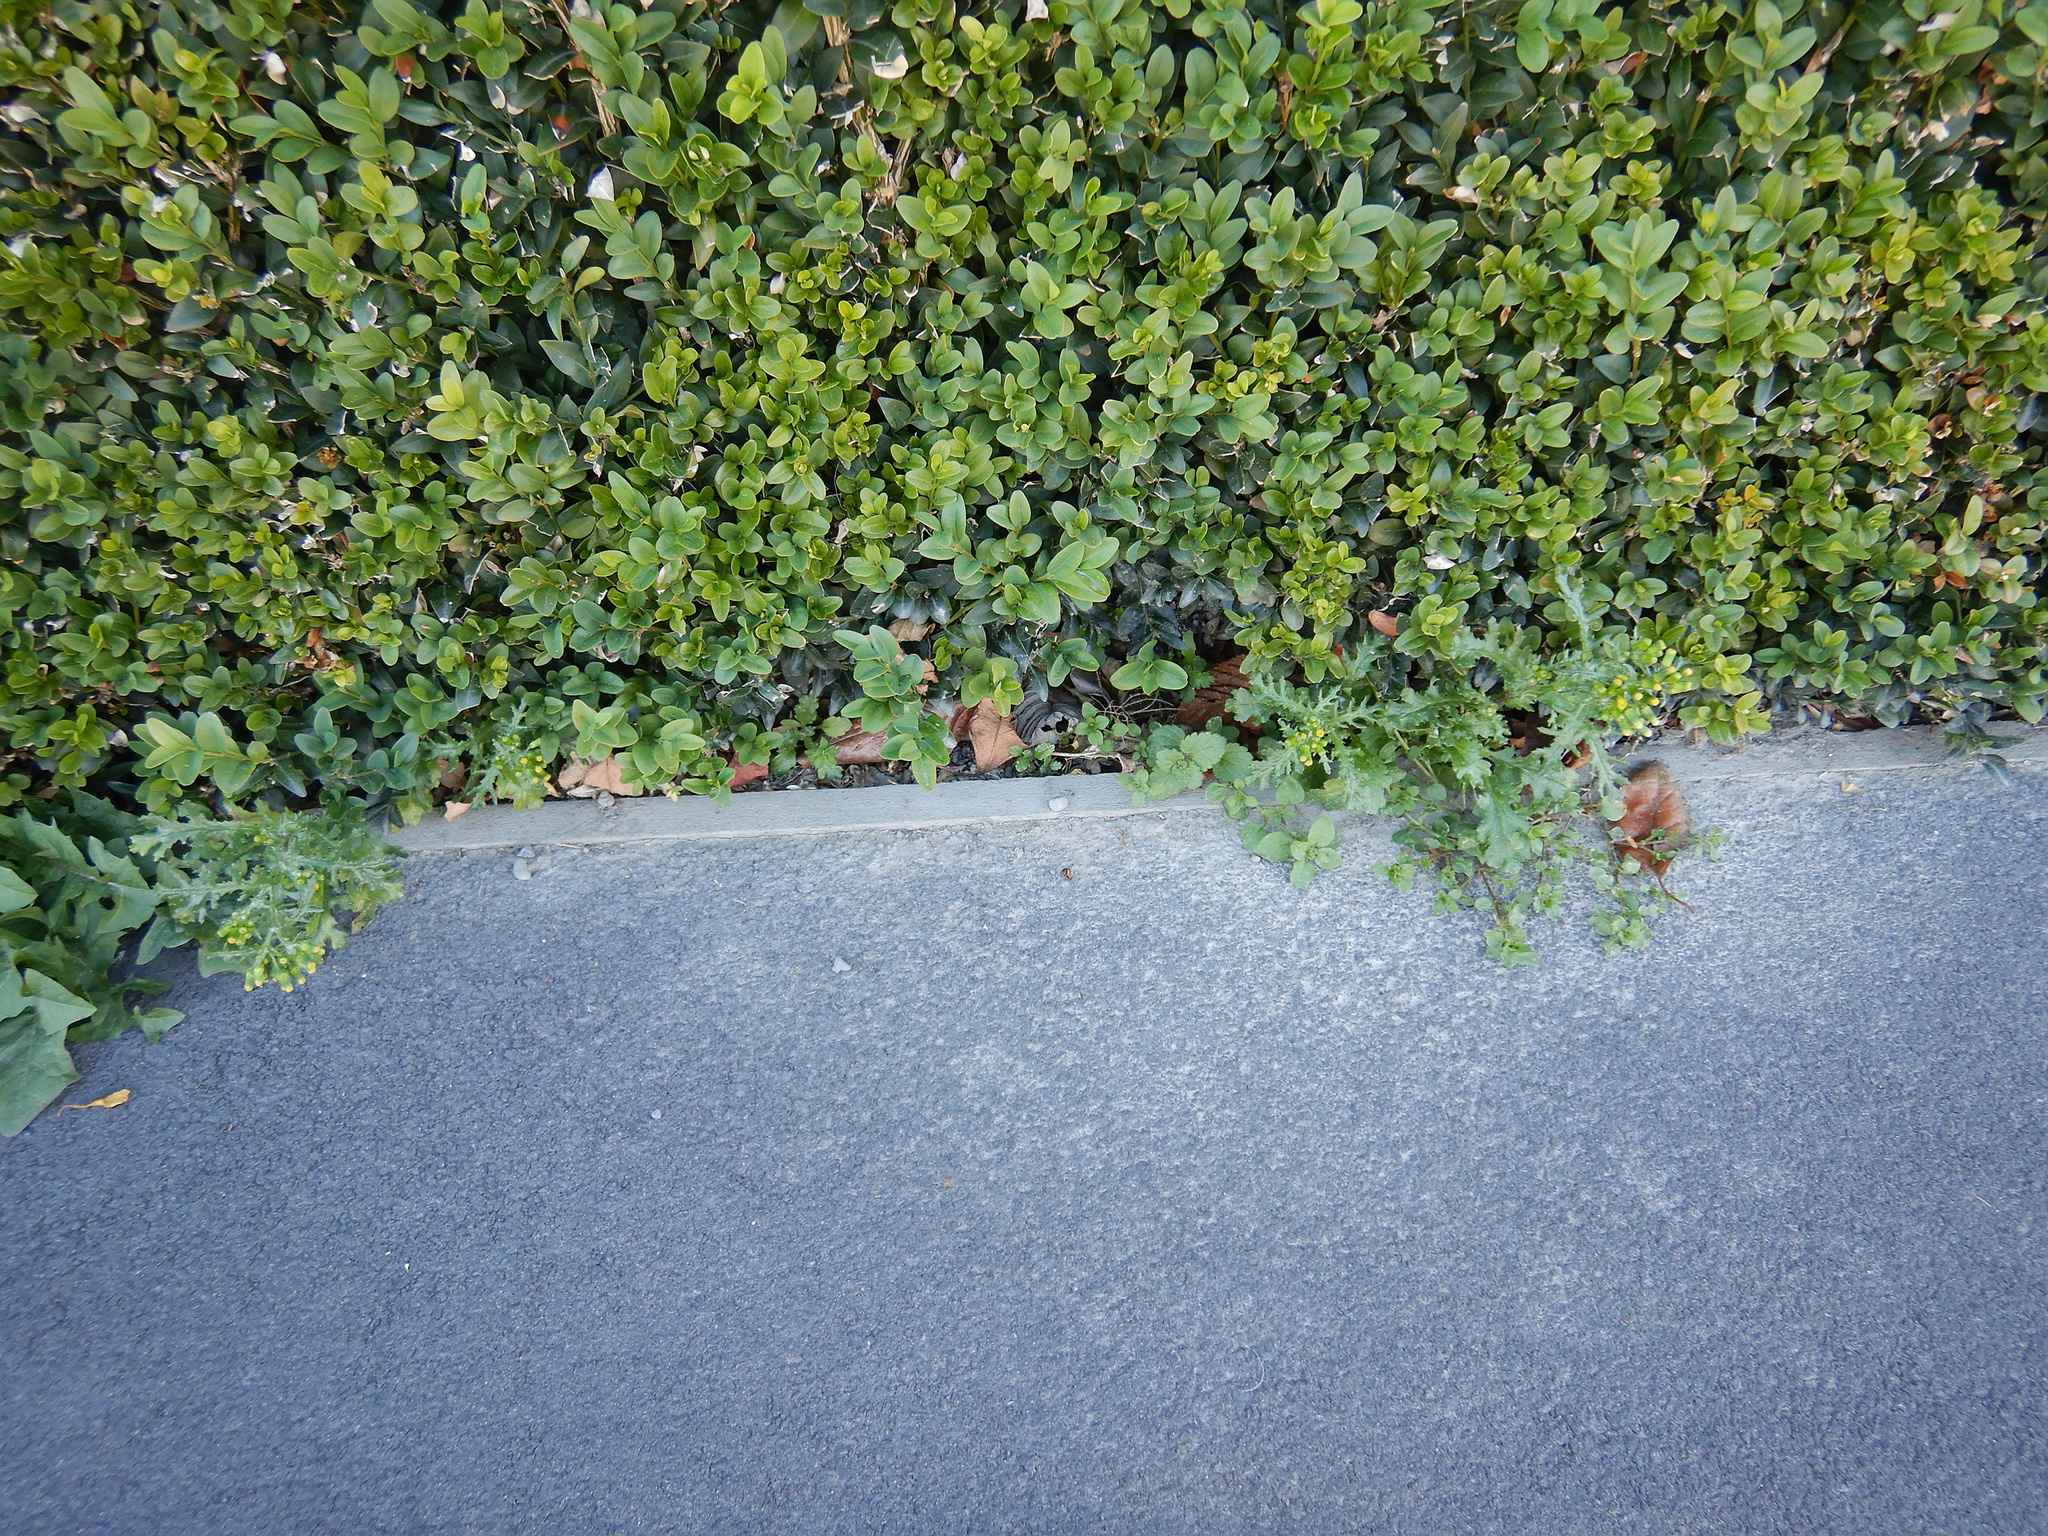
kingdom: Plantae
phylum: Tracheophyta
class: Magnoliopsida
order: Asterales
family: Asteraceae
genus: Senecio
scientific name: Senecio vulgaris
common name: Old-man-in-the-spring
